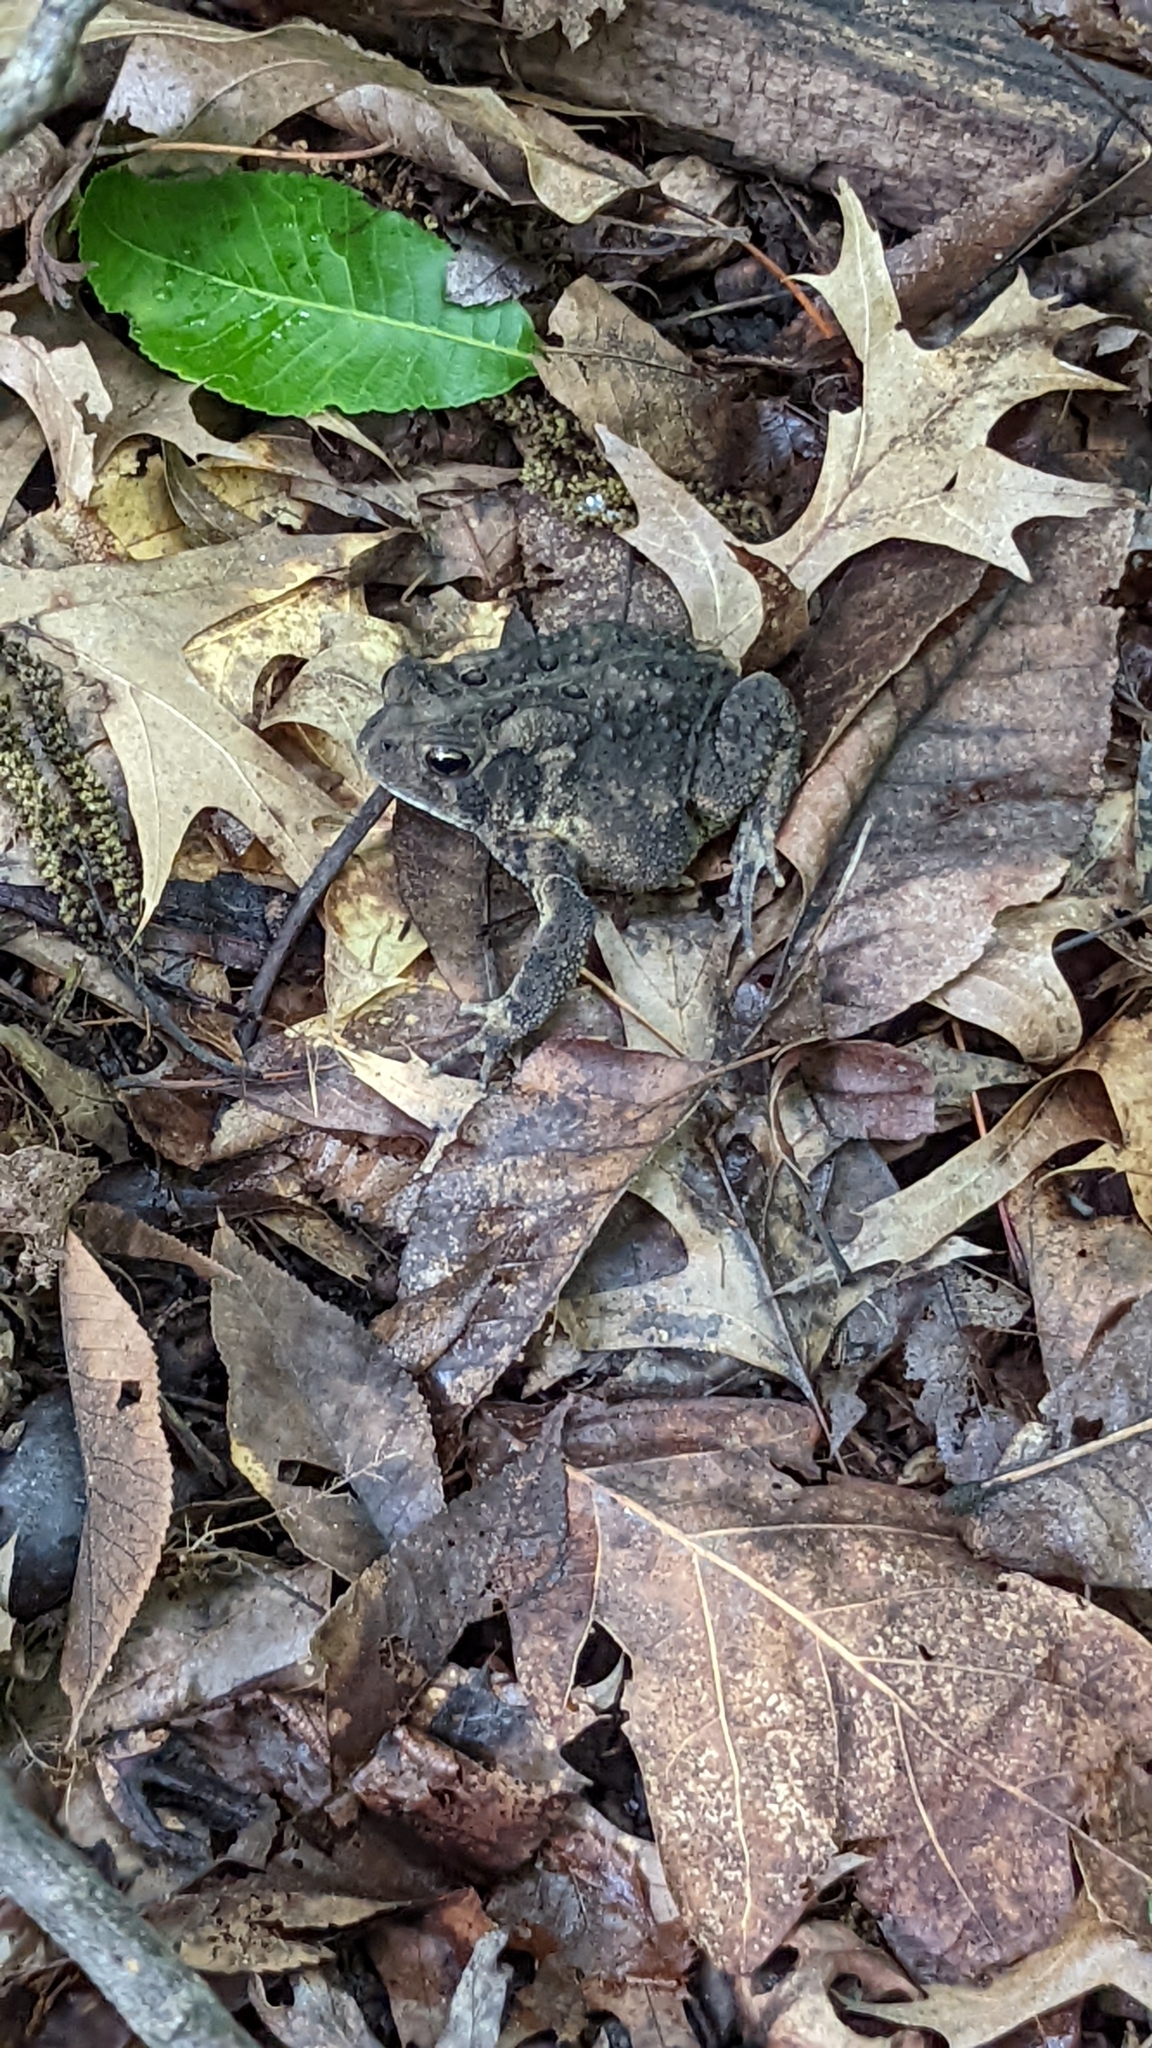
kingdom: Animalia
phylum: Chordata
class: Amphibia
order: Anura
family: Bufonidae
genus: Anaxyrus
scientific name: Anaxyrus americanus
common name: American toad
